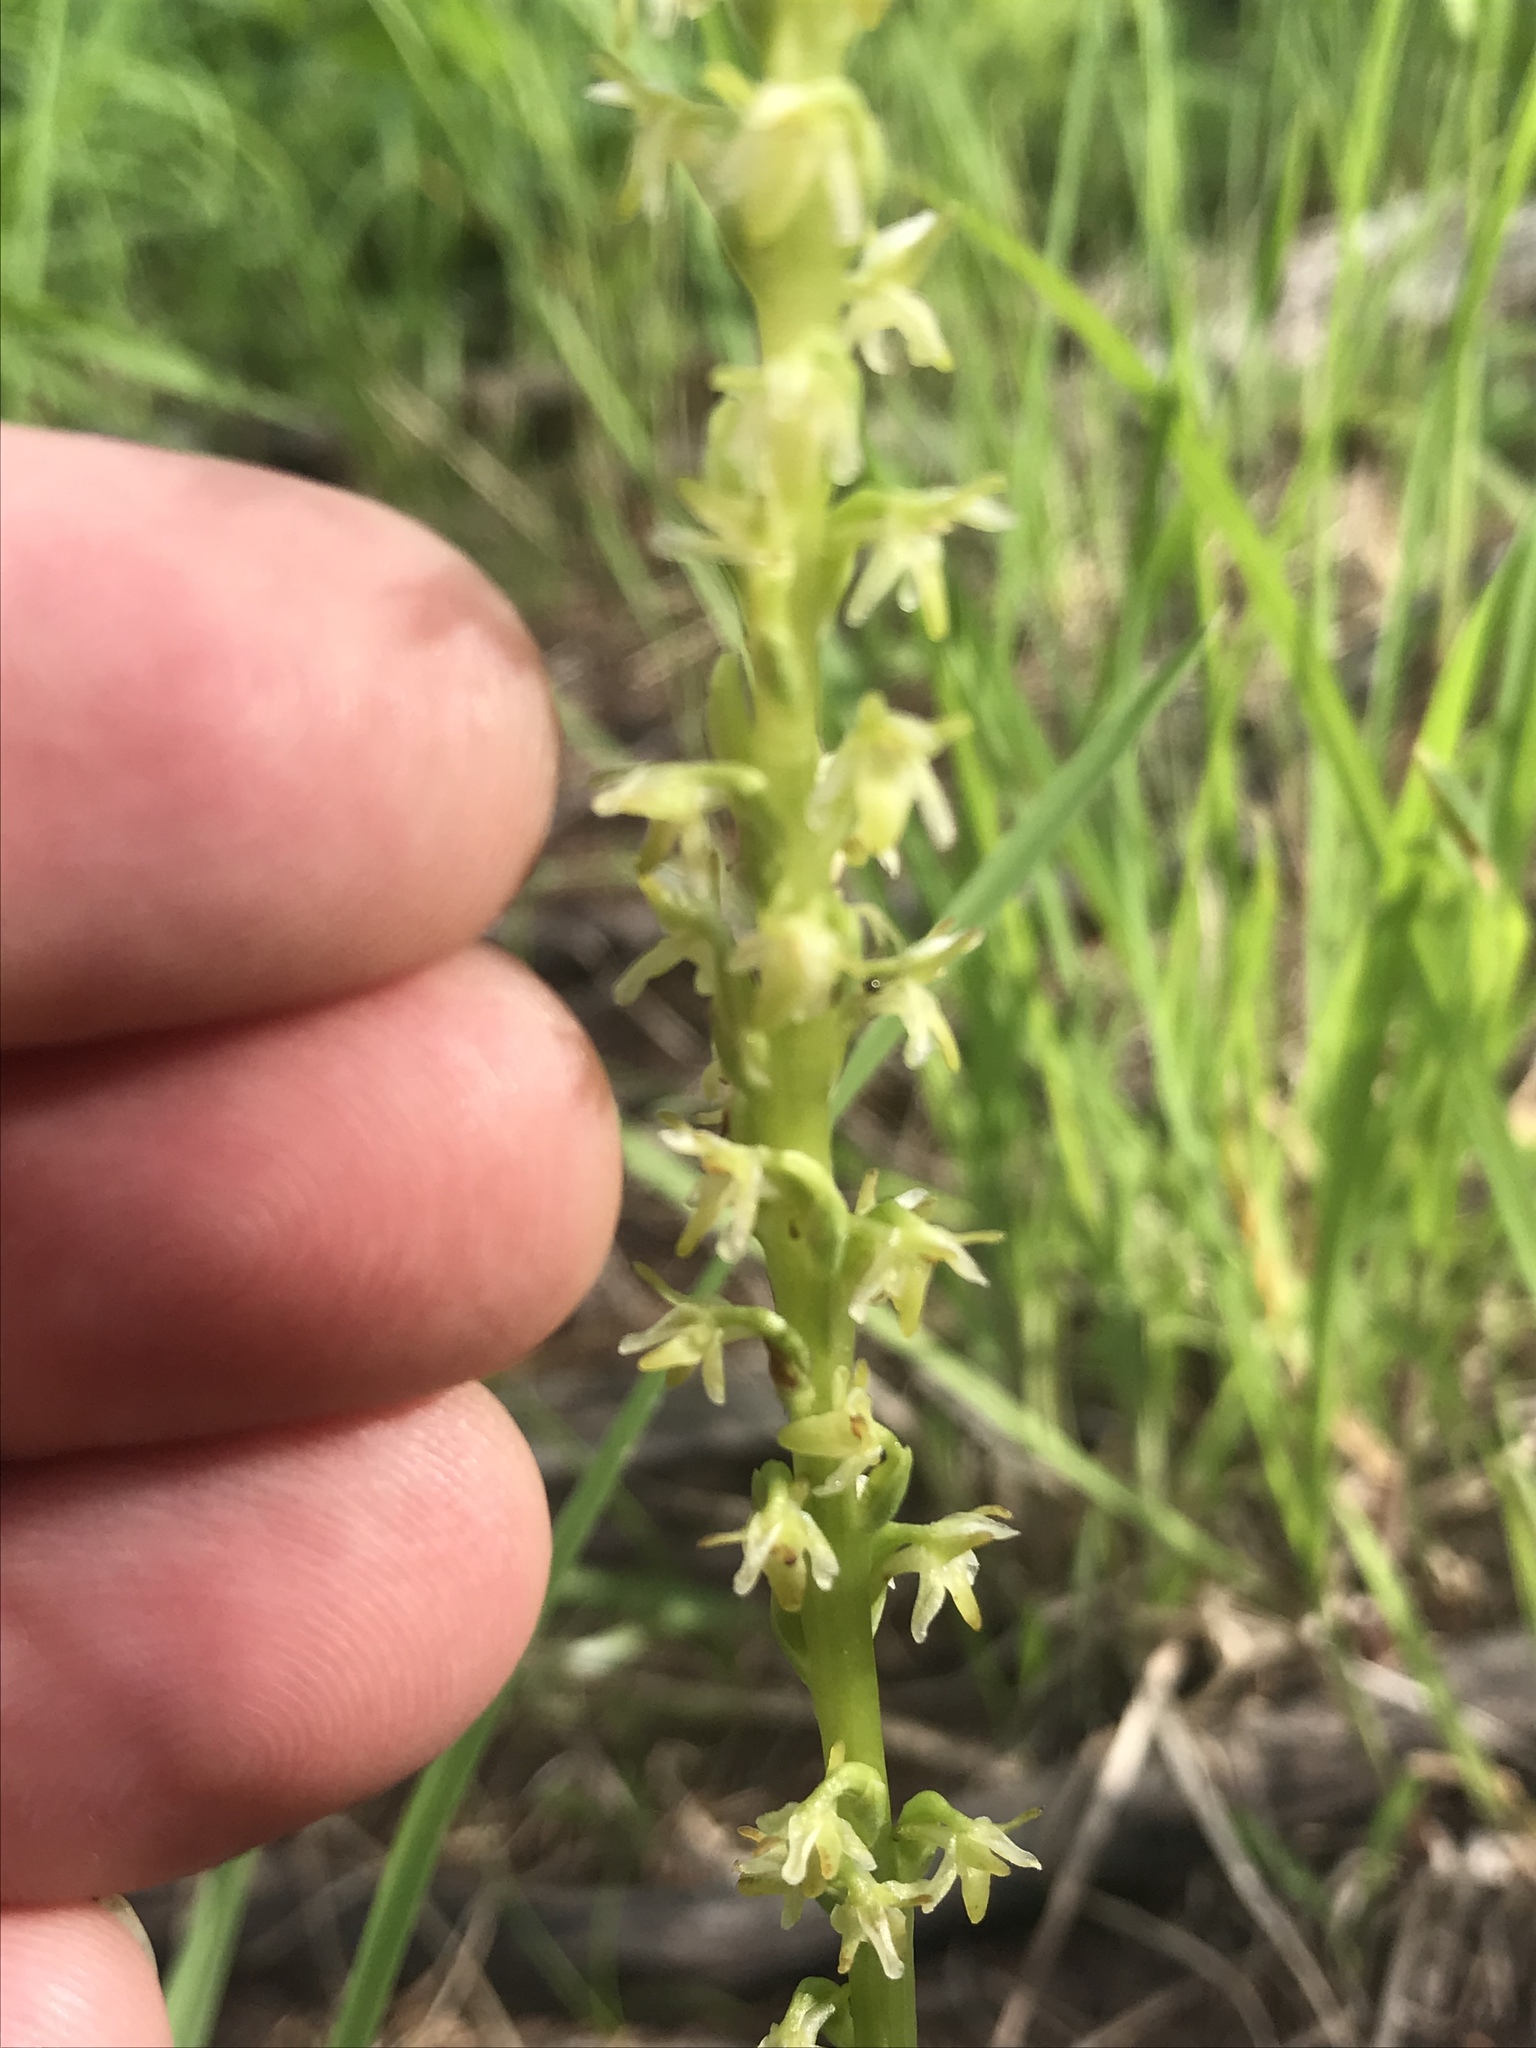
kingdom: Plantae
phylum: Tracheophyta
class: Liliopsida
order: Asparagales
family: Orchidaceae
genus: Platanthera
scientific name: Platanthera unalascensis
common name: Alaska bog orchid
